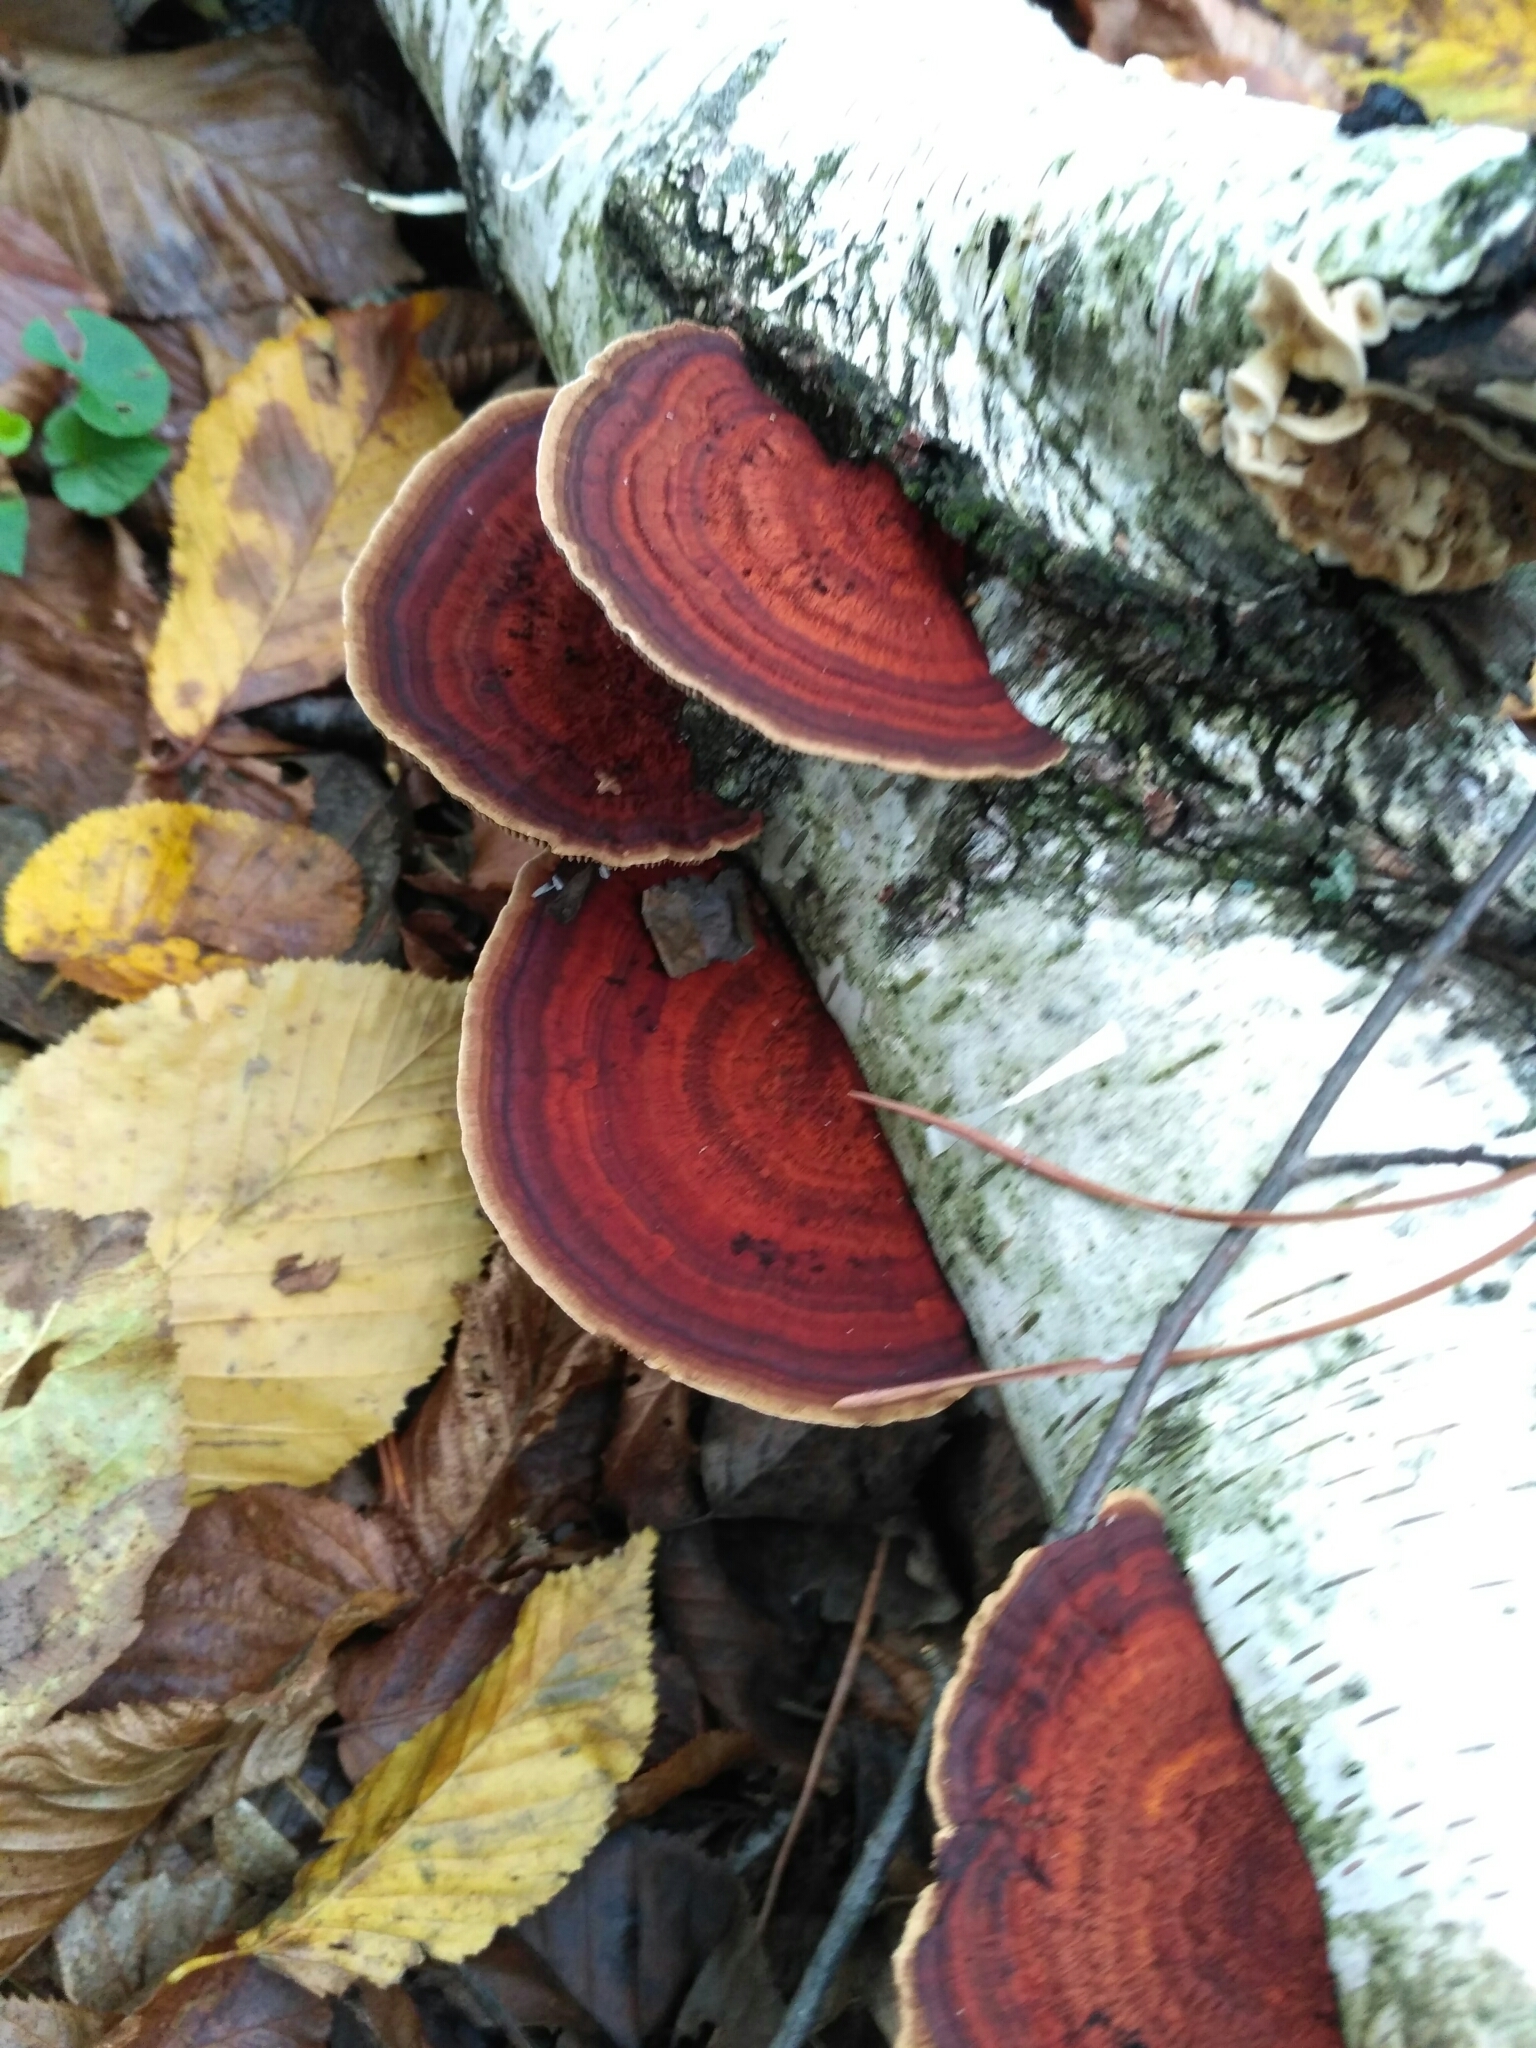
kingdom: Fungi
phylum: Basidiomycota
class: Agaricomycetes
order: Polyporales
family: Polyporaceae
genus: Daedaleopsis
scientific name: Daedaleopsis tricolor
